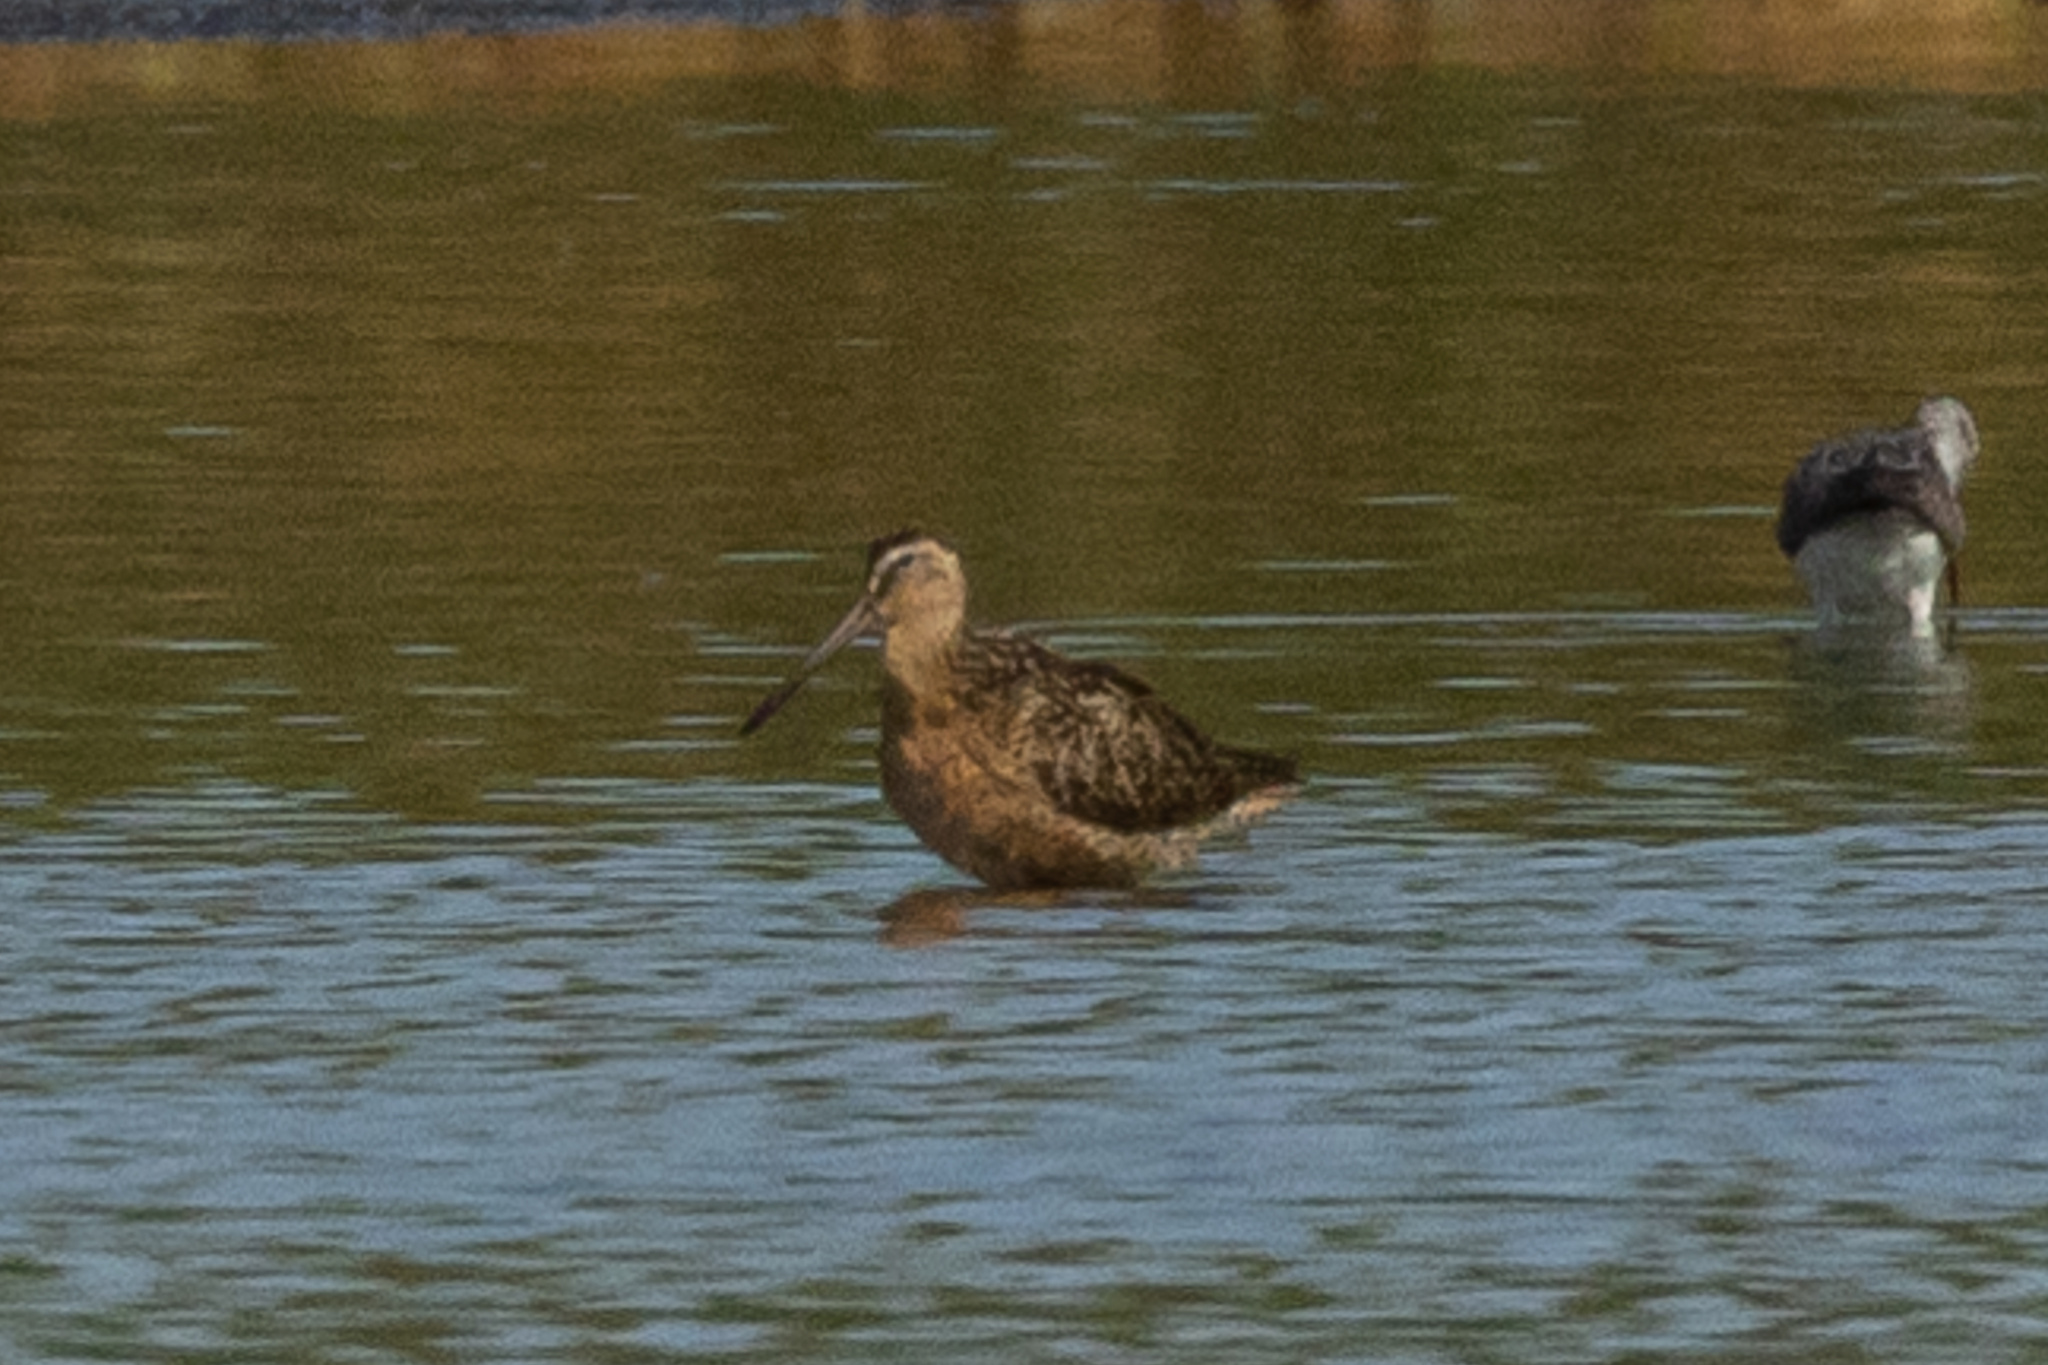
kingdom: Animalia
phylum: Chordata
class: Aves
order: Charadriiformes
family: Scolopacidae
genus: Limnodromus
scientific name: Limnodromus scolopaceus
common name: Long-billed dowitcher
